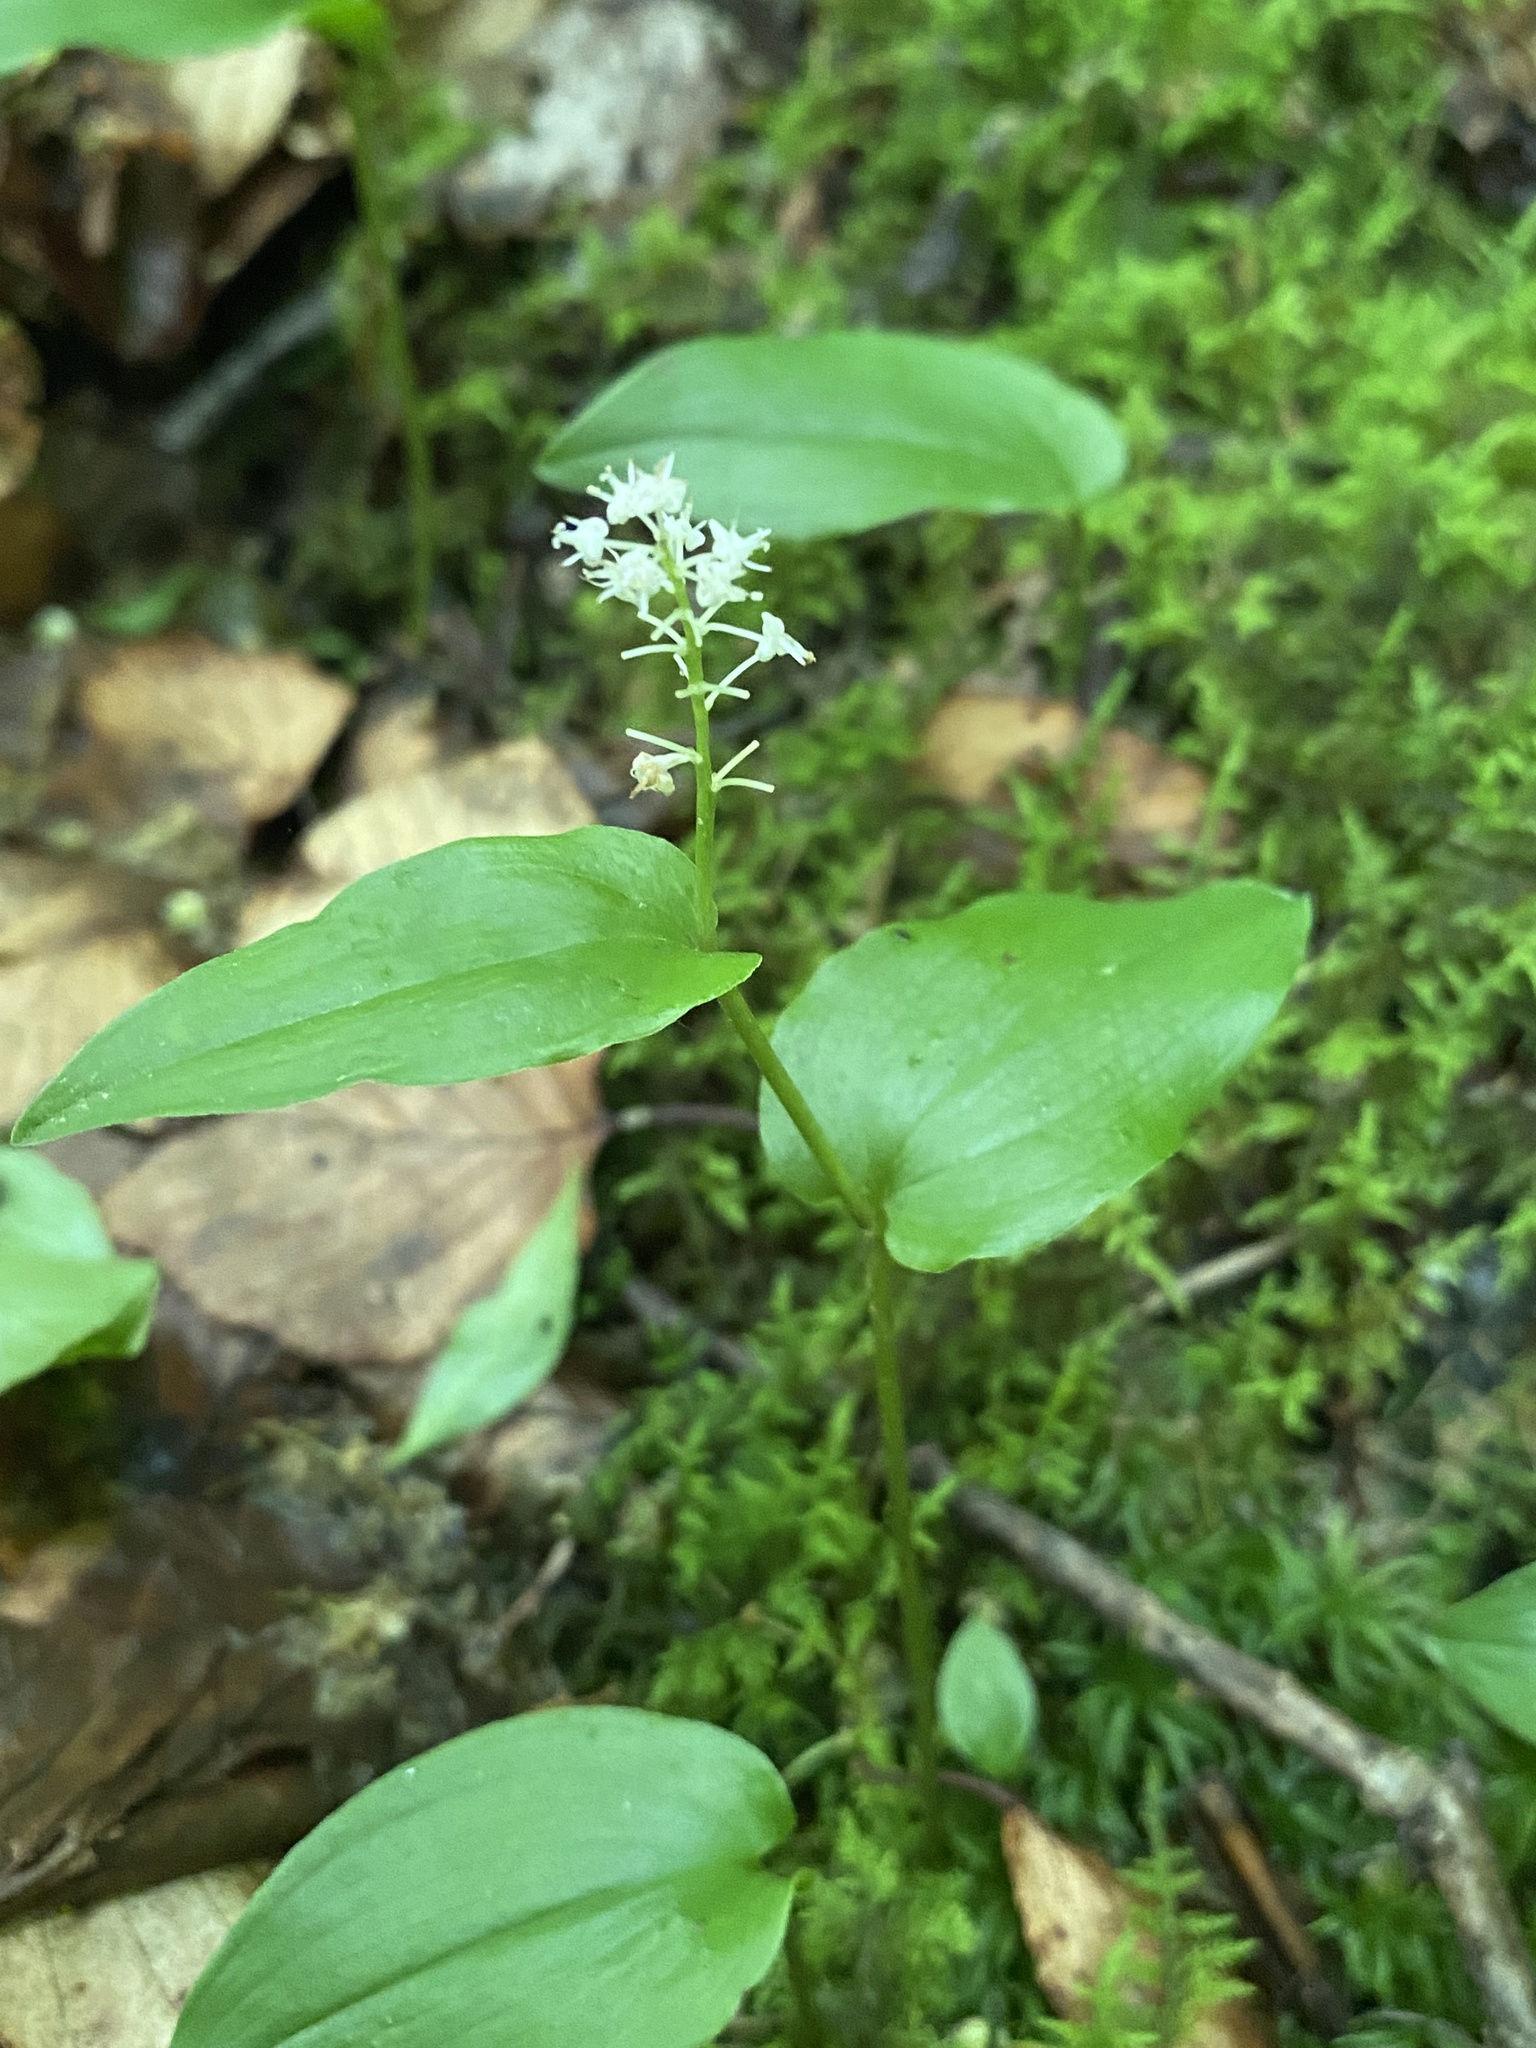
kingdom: Plantae
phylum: Tracheophyta
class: Liliopsida
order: Asparagales
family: Asparagaceae
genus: Maianthemum
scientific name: Maianthemum canadense
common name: False lily-of-the-valley
